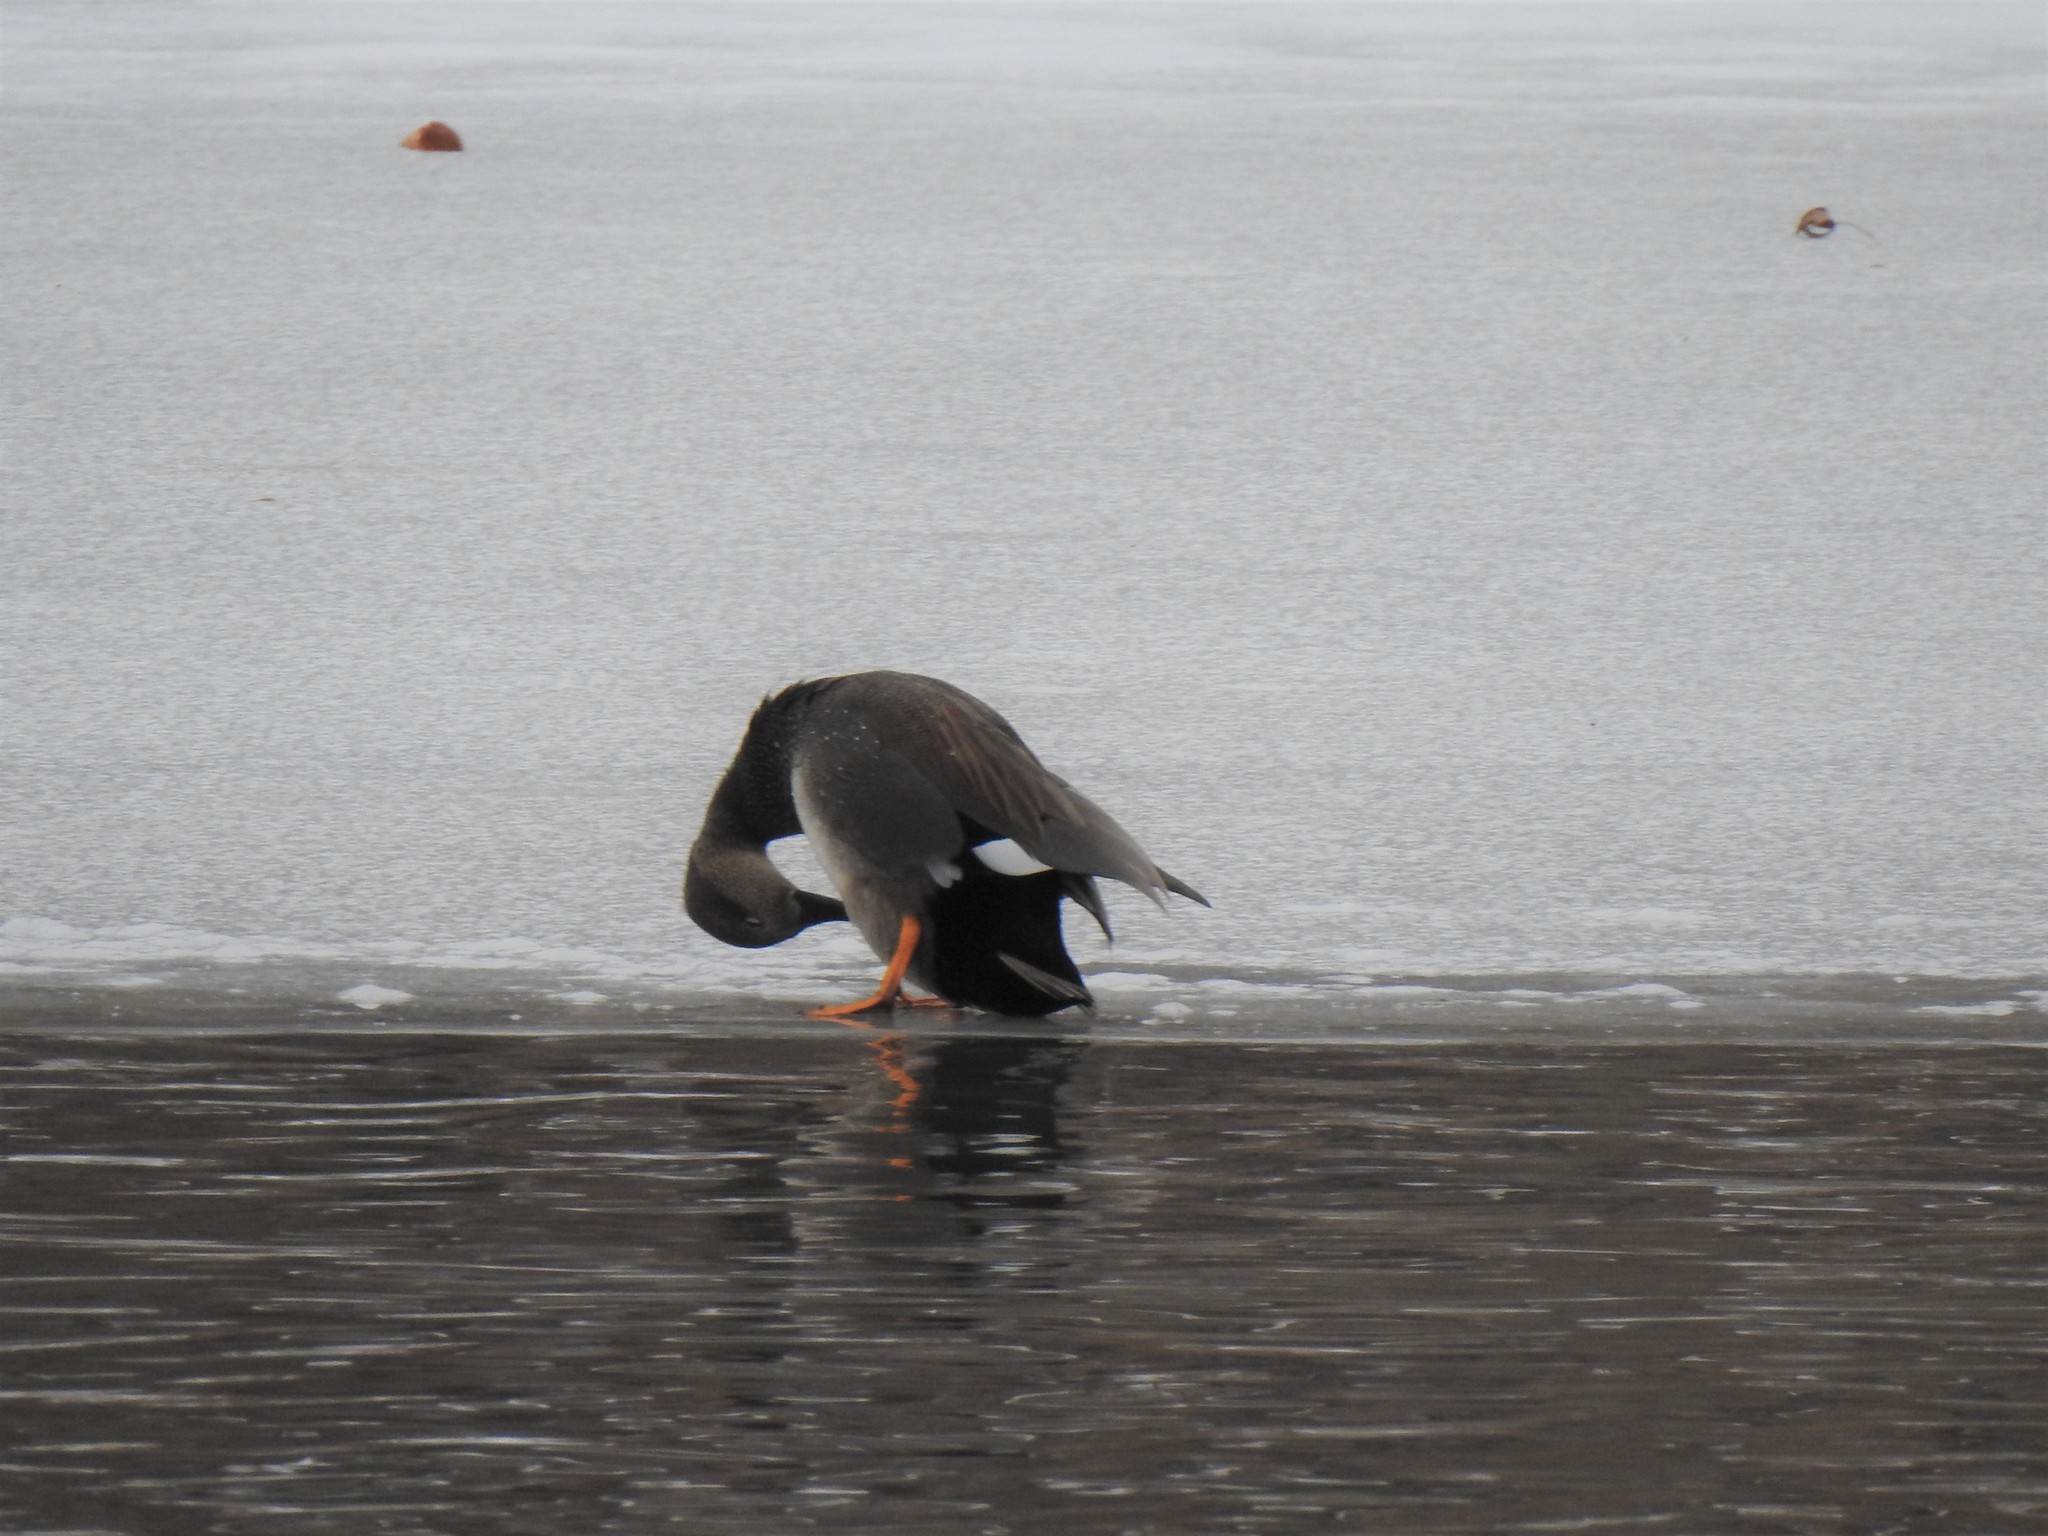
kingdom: Animalia
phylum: Chordata
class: Aves
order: Anseriformes
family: Anatidae
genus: Mareca
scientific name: Mareca strepera
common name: Gadwall
